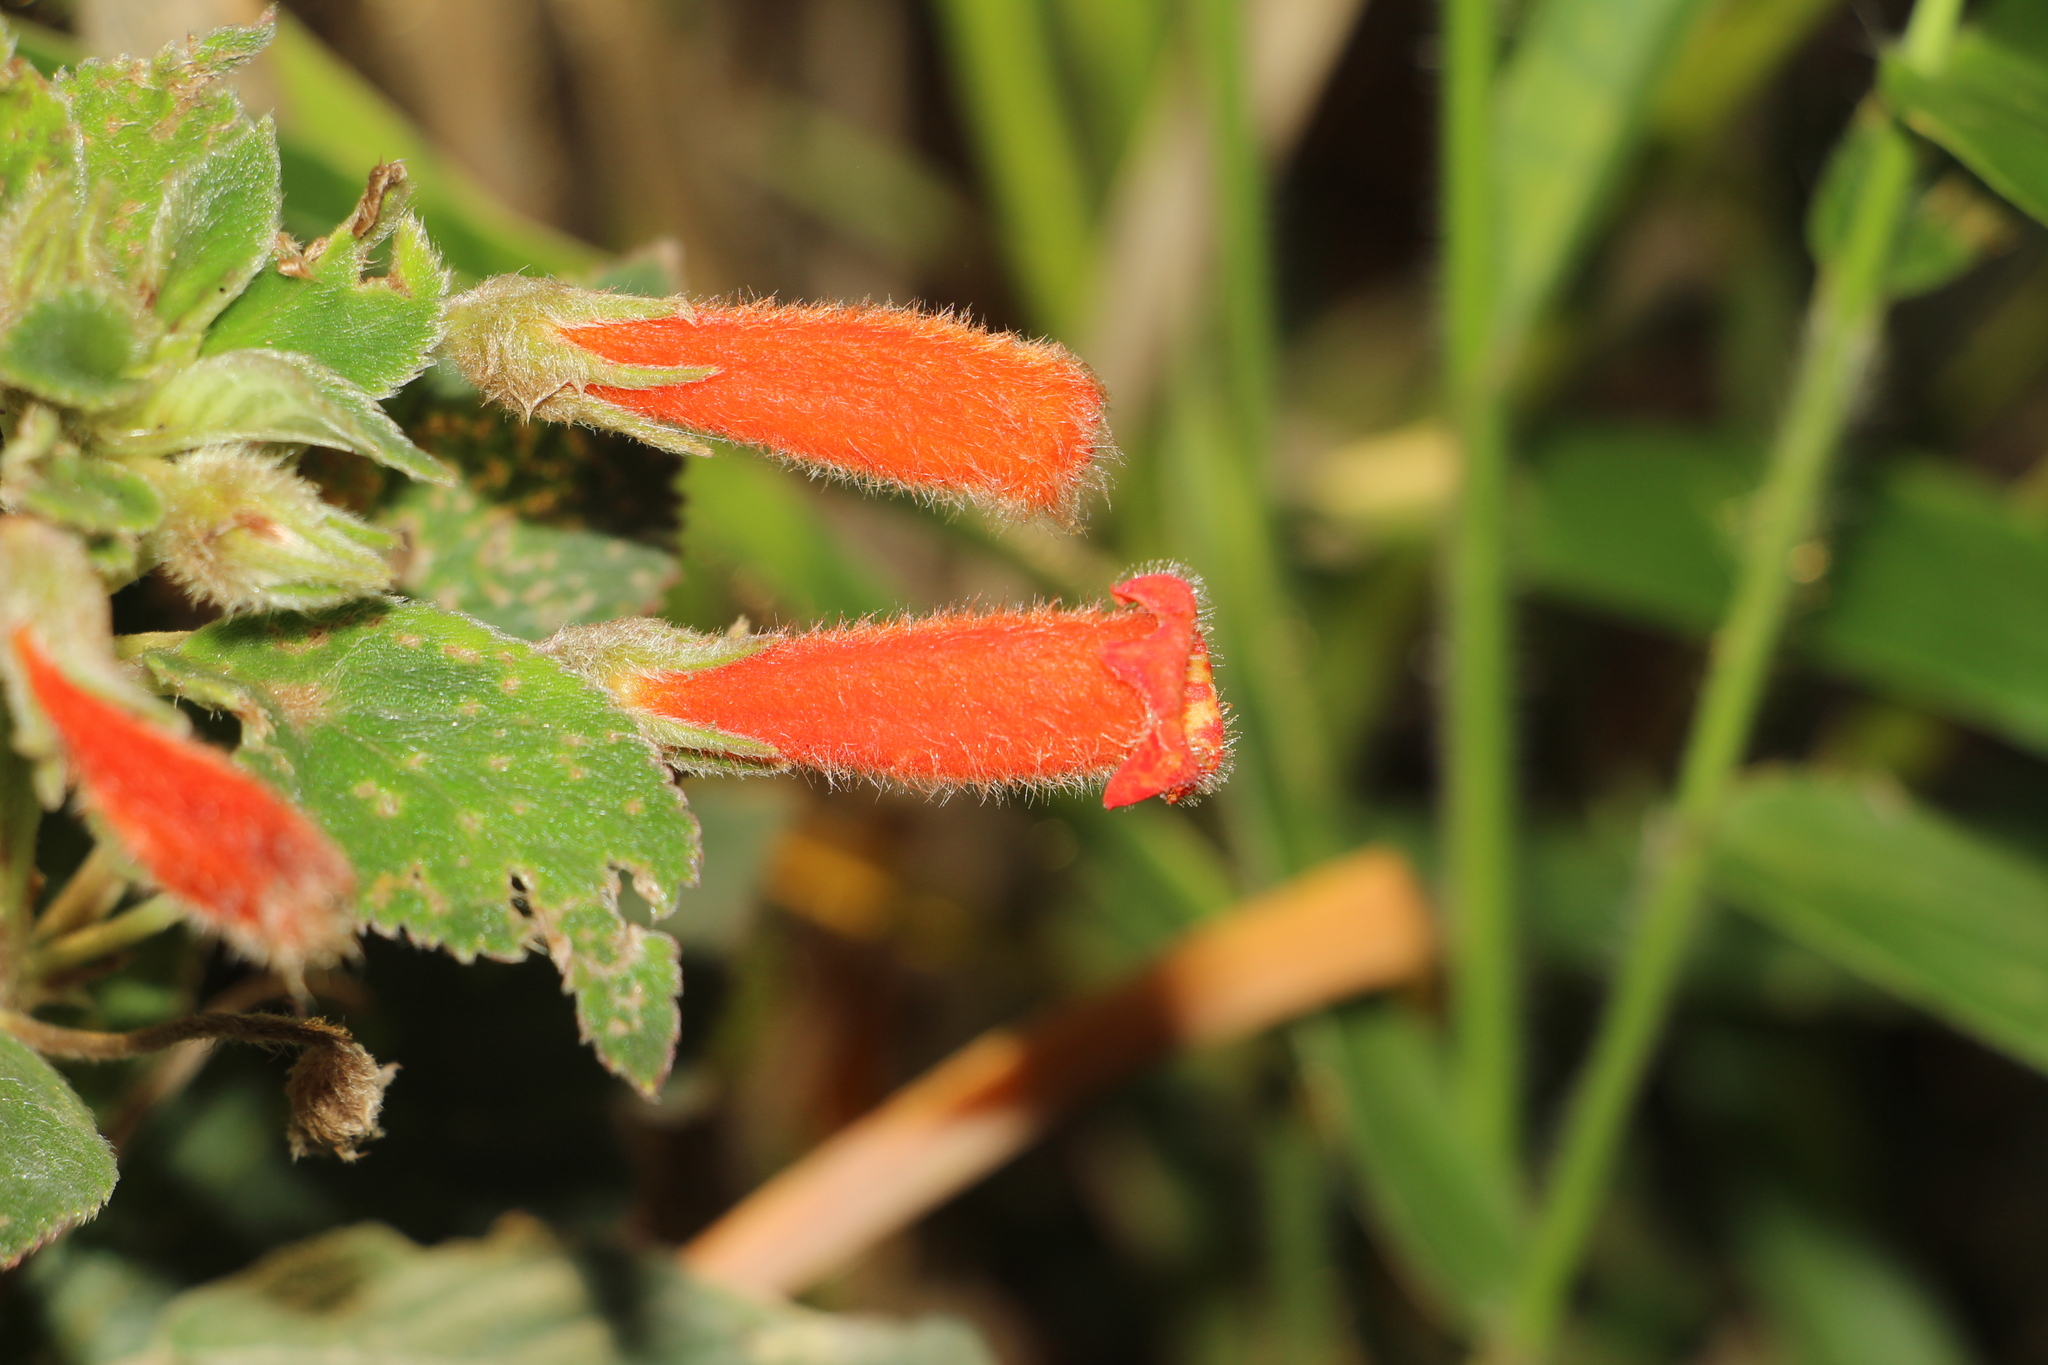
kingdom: Plantae
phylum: Tracheophyta
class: Magnoliopsida
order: Lamiales
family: Gesneriaceae
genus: Kohleria
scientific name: Kohleria hirsuta
